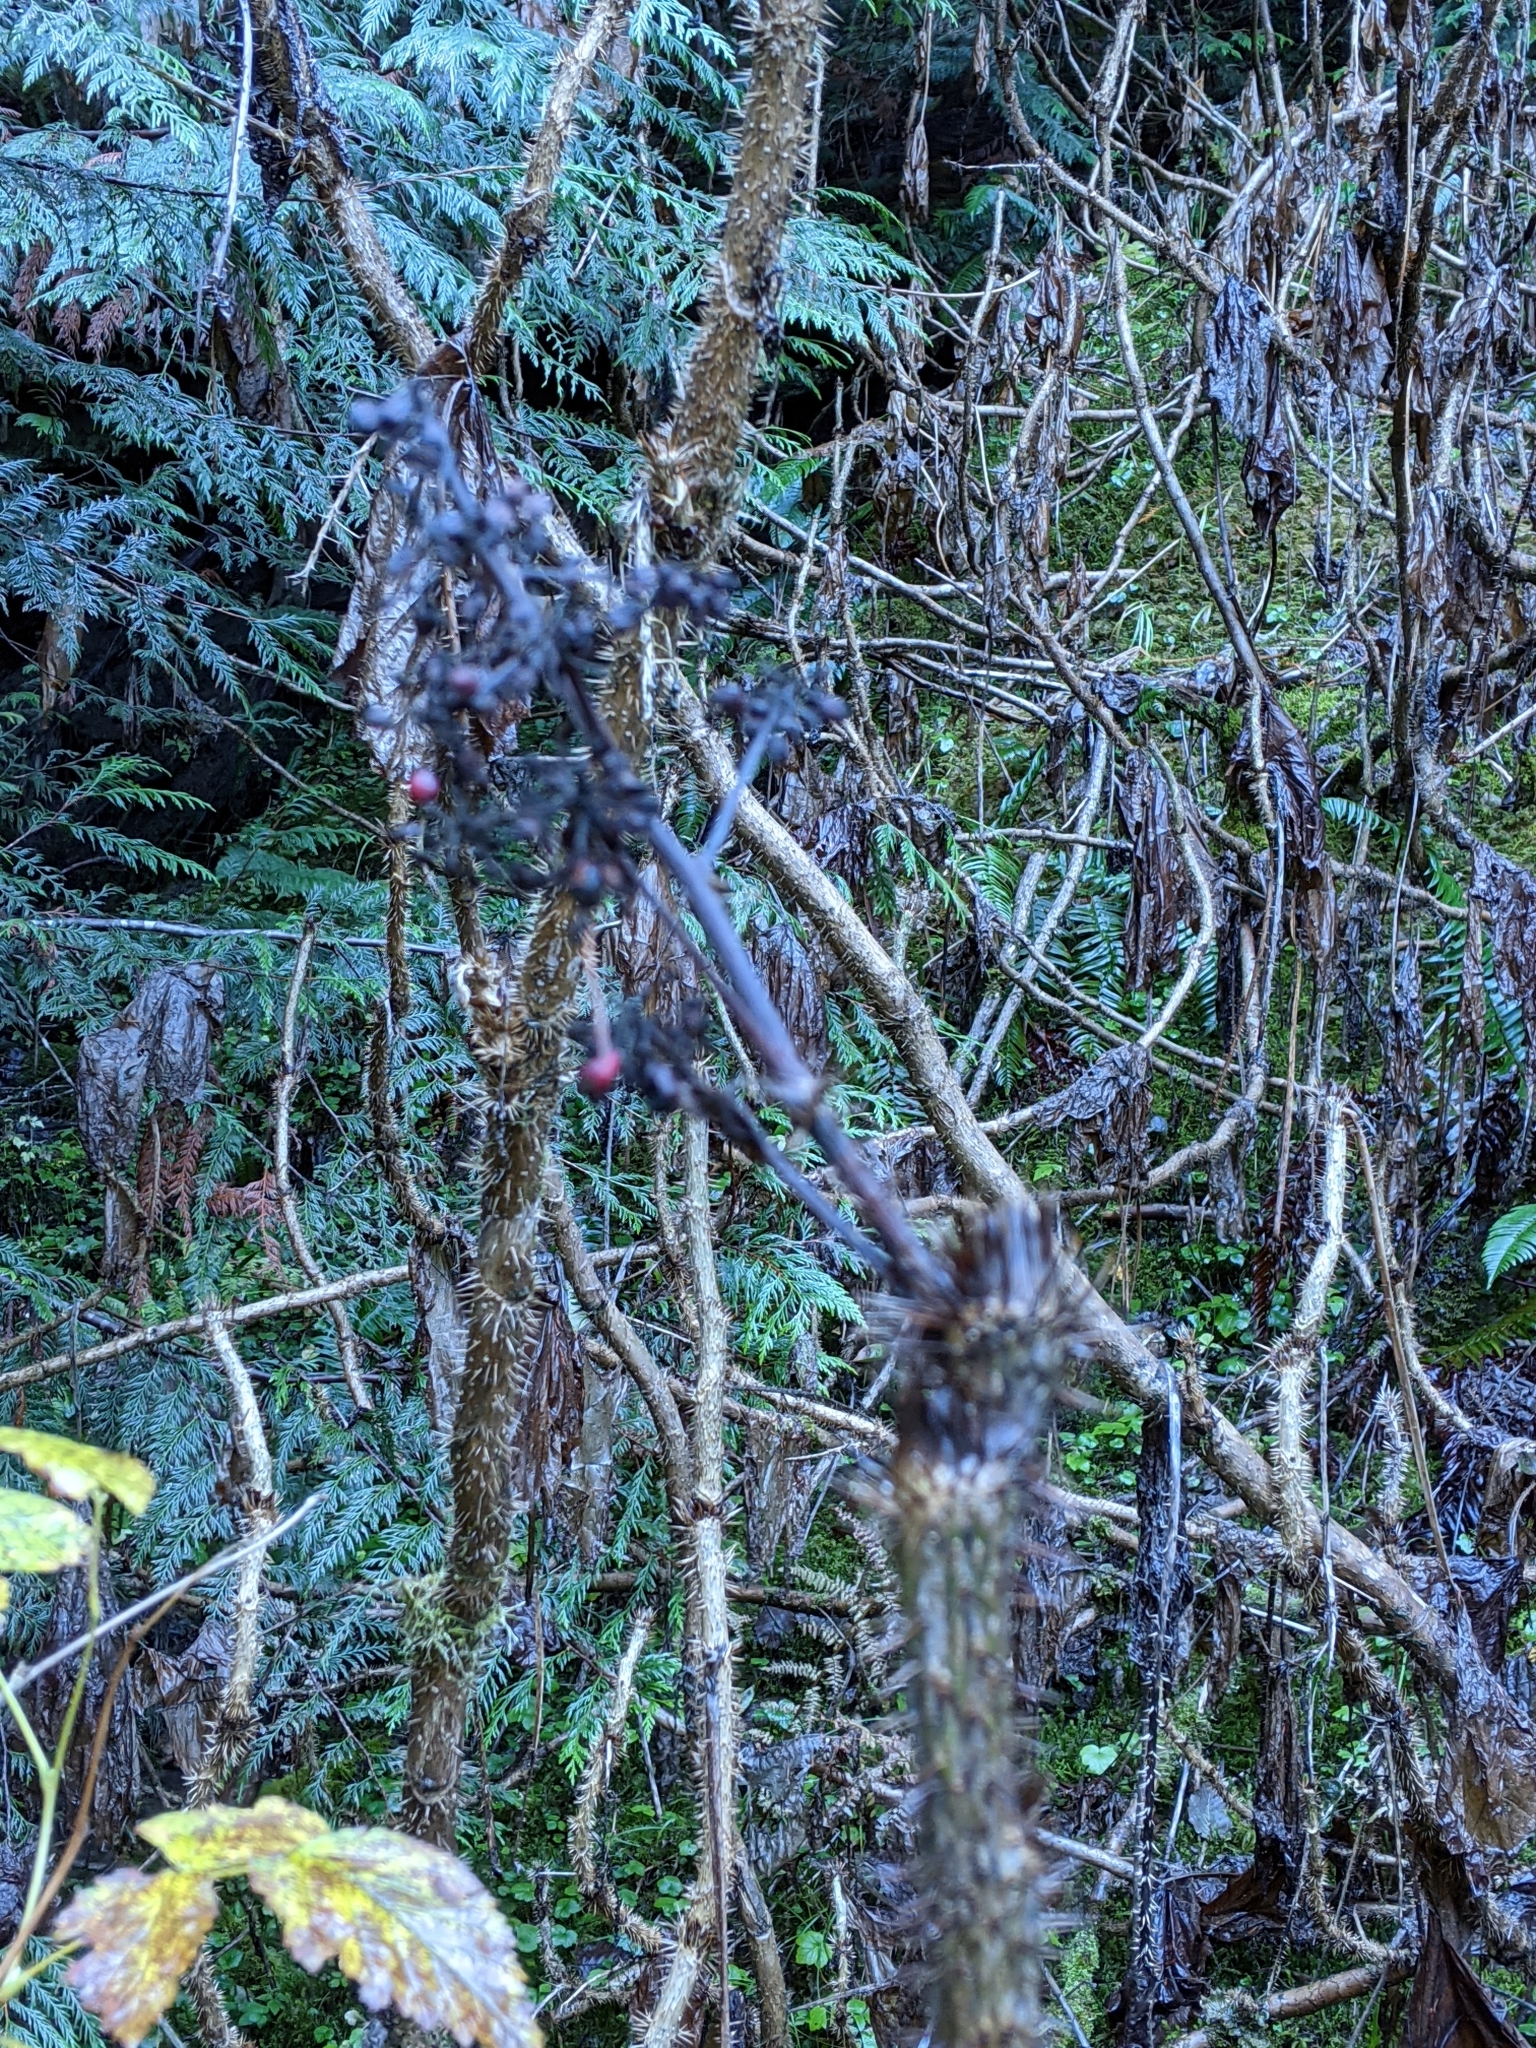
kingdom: Plantae
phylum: Tracheophyta
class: Magnoliopsida
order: Apiales
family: Araliaceae
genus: Oplopanax
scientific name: Oplopanax horridus
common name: Devil's walking-stick
